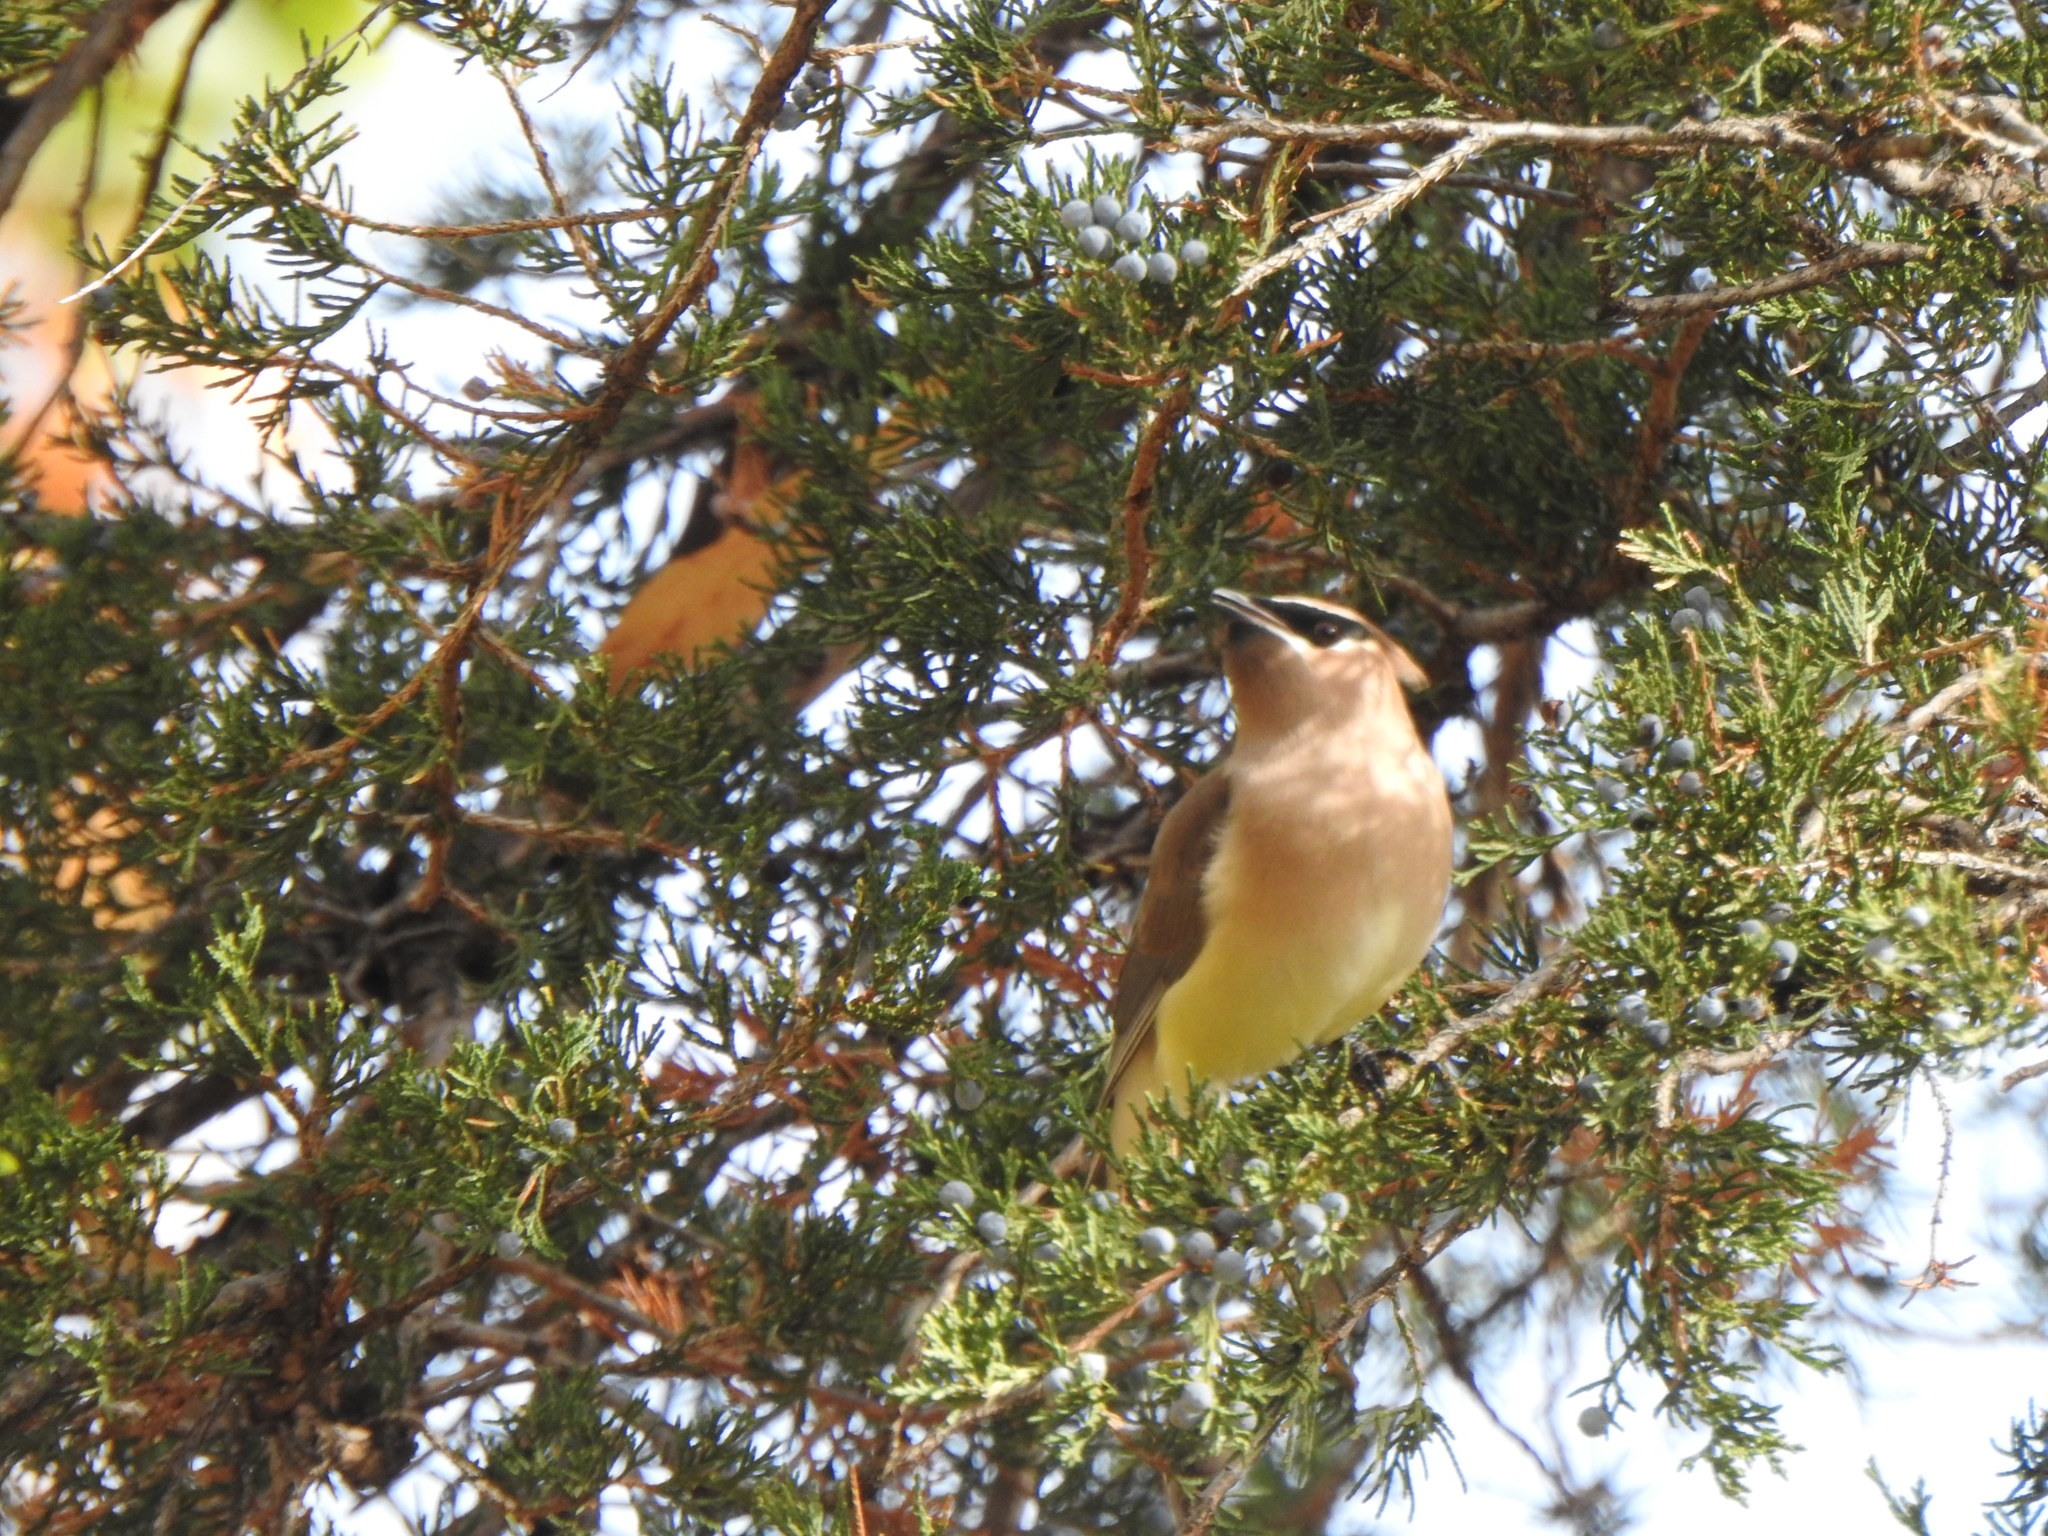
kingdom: Animalia
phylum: Chordata
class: Aves
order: Passeriformes
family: Bombycillidae
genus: Bombycilla
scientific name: Bombycilla cedrorum
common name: Cedar waxwing
